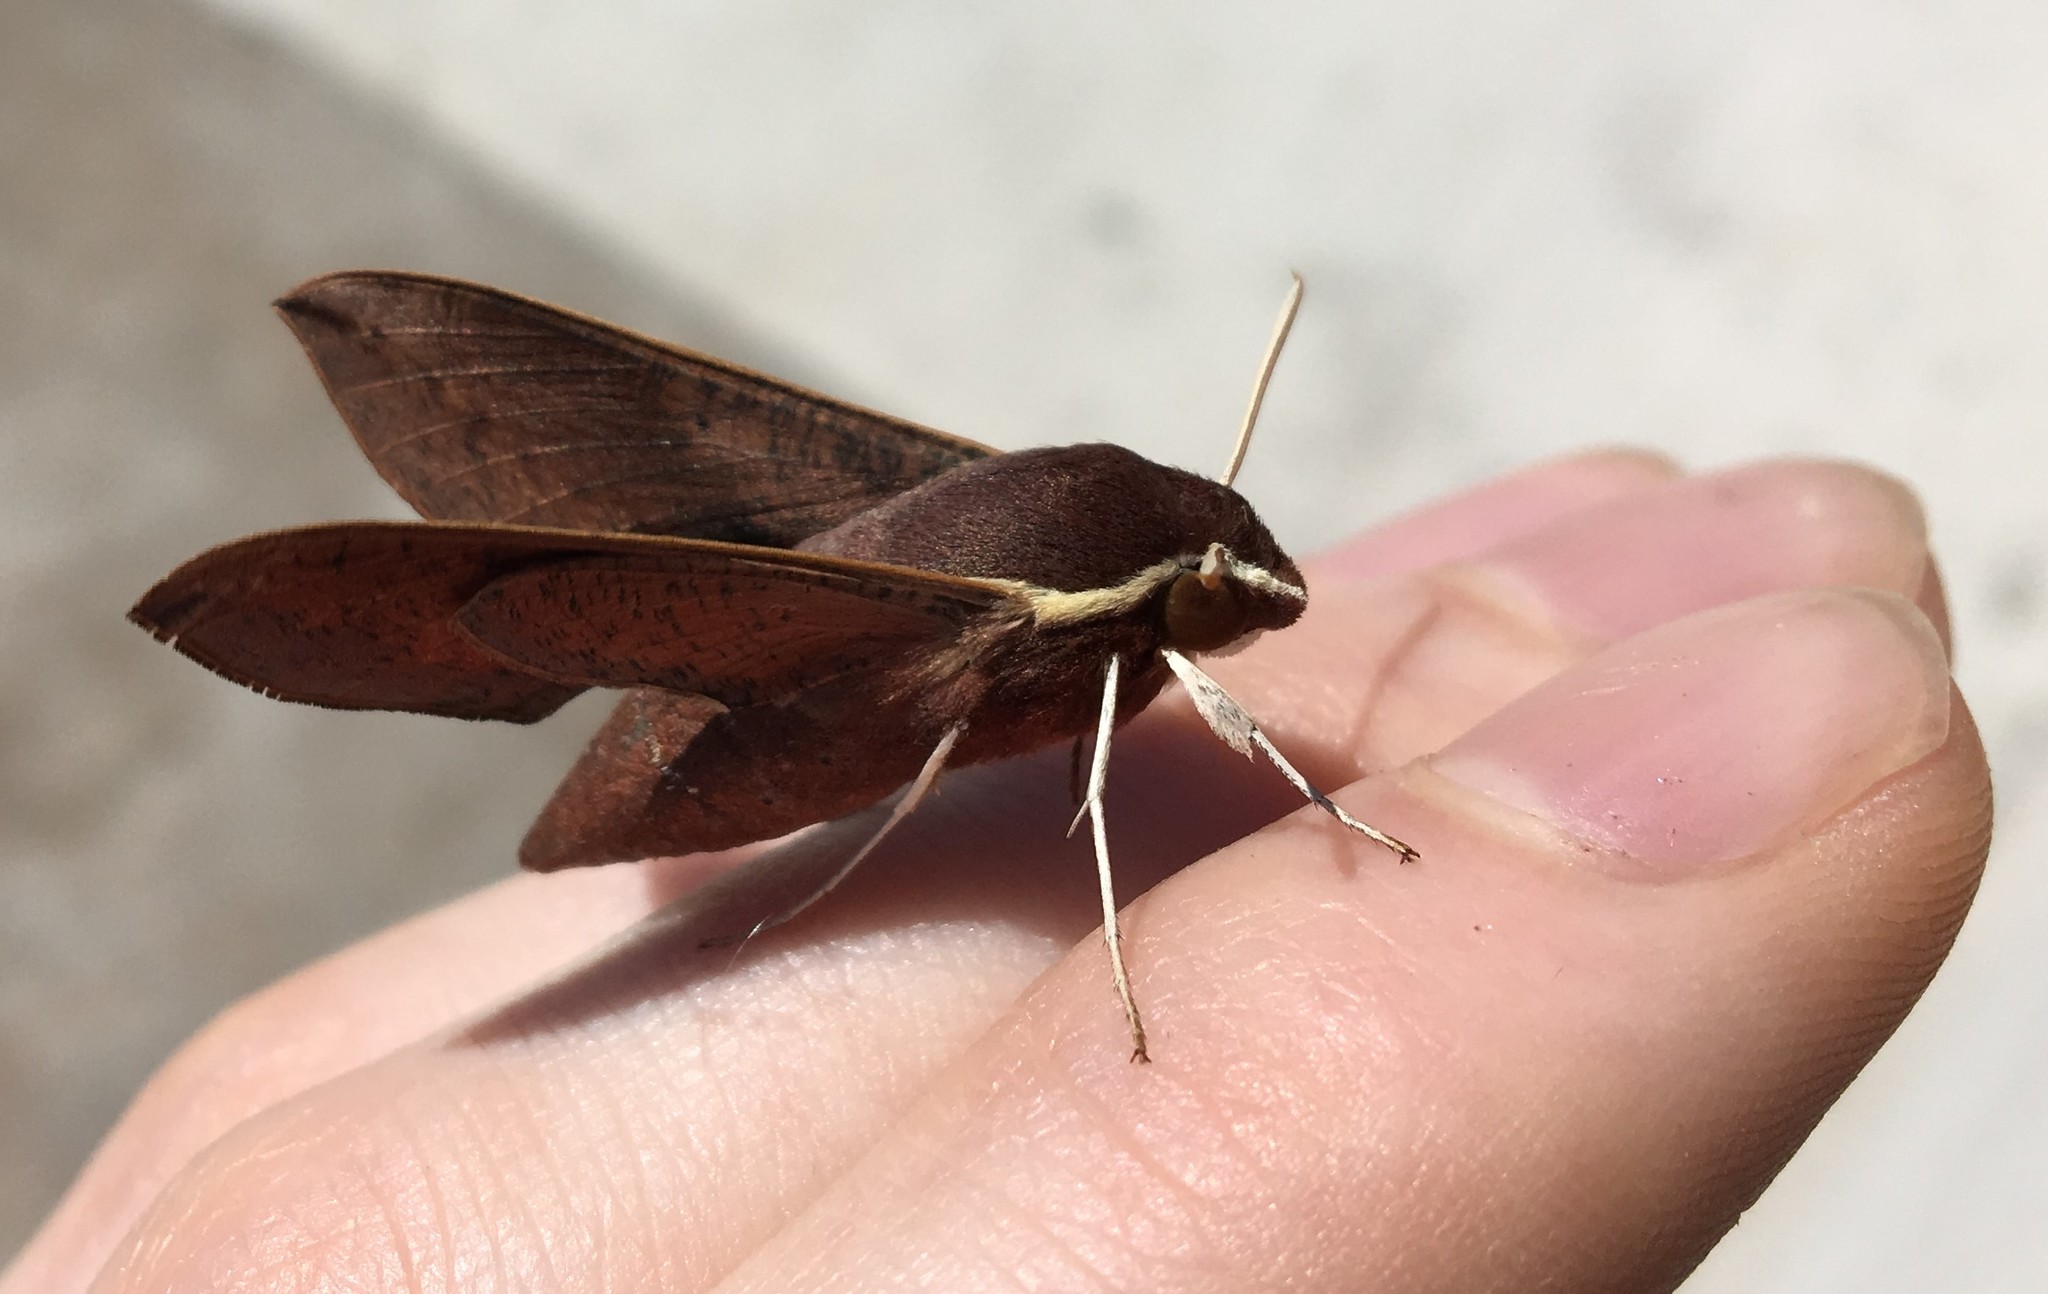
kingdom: Animalia
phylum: Arthropoda
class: Insecta
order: Lepidoptera
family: Sphingidae
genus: Hippotion
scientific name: Hippotion scrofa
